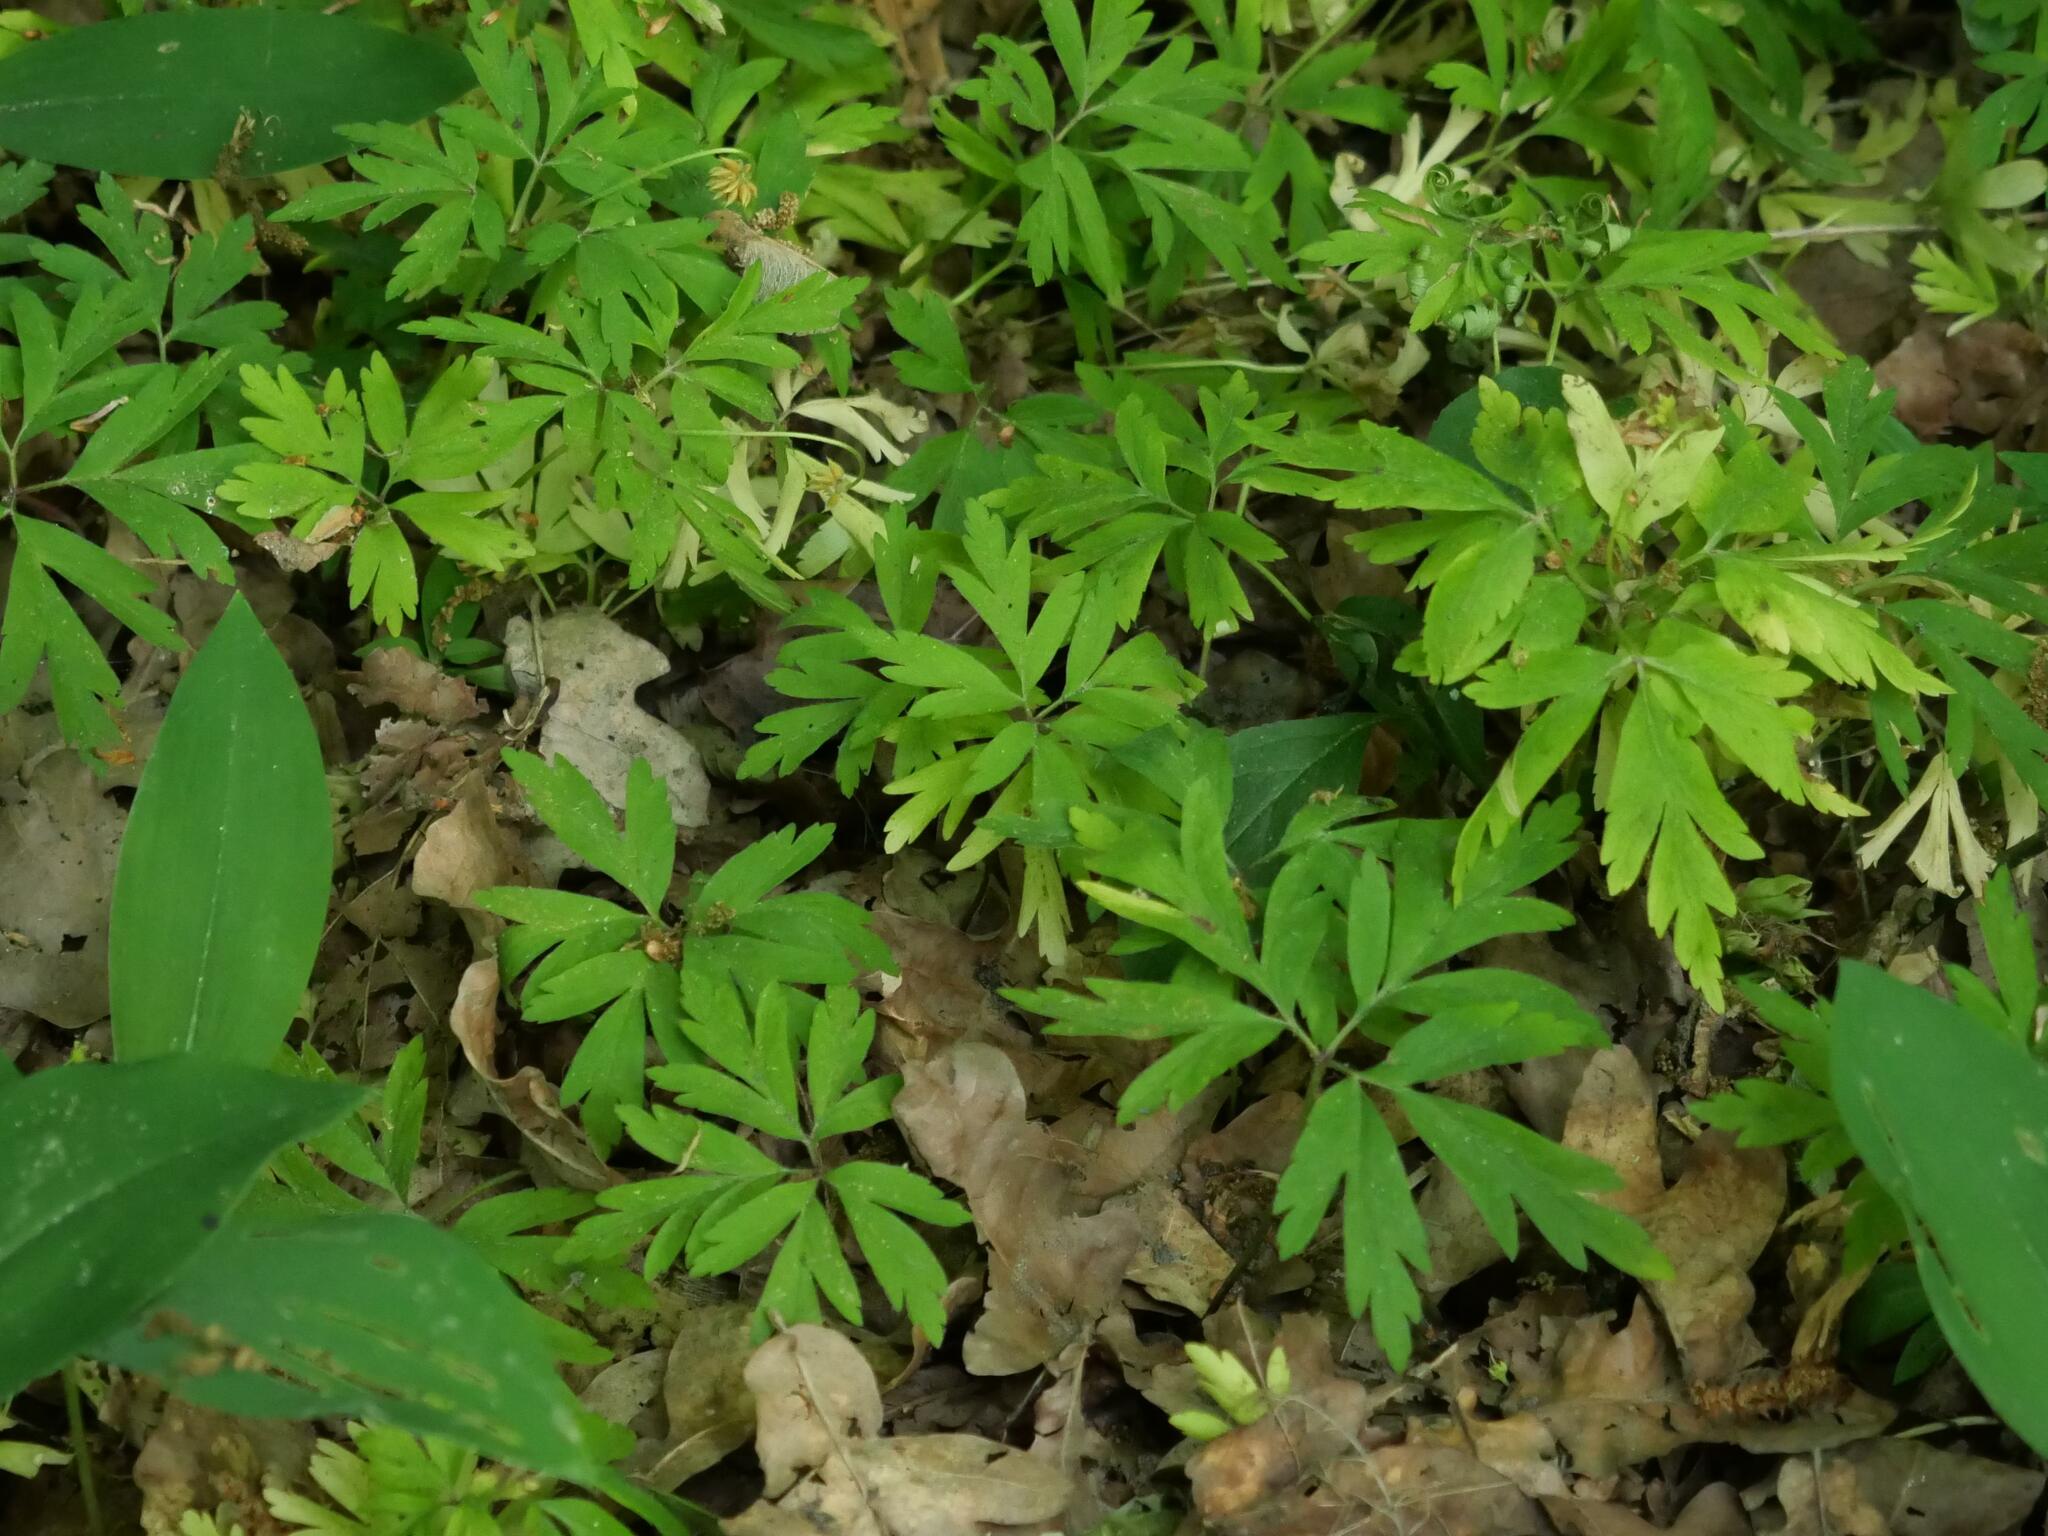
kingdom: Plantae
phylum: Tracheophyta
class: Magnoliopsida
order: Ranunculales
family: Ranunculaceae
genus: Anemone
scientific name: Anemone nemorosa
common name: Wood anemone
